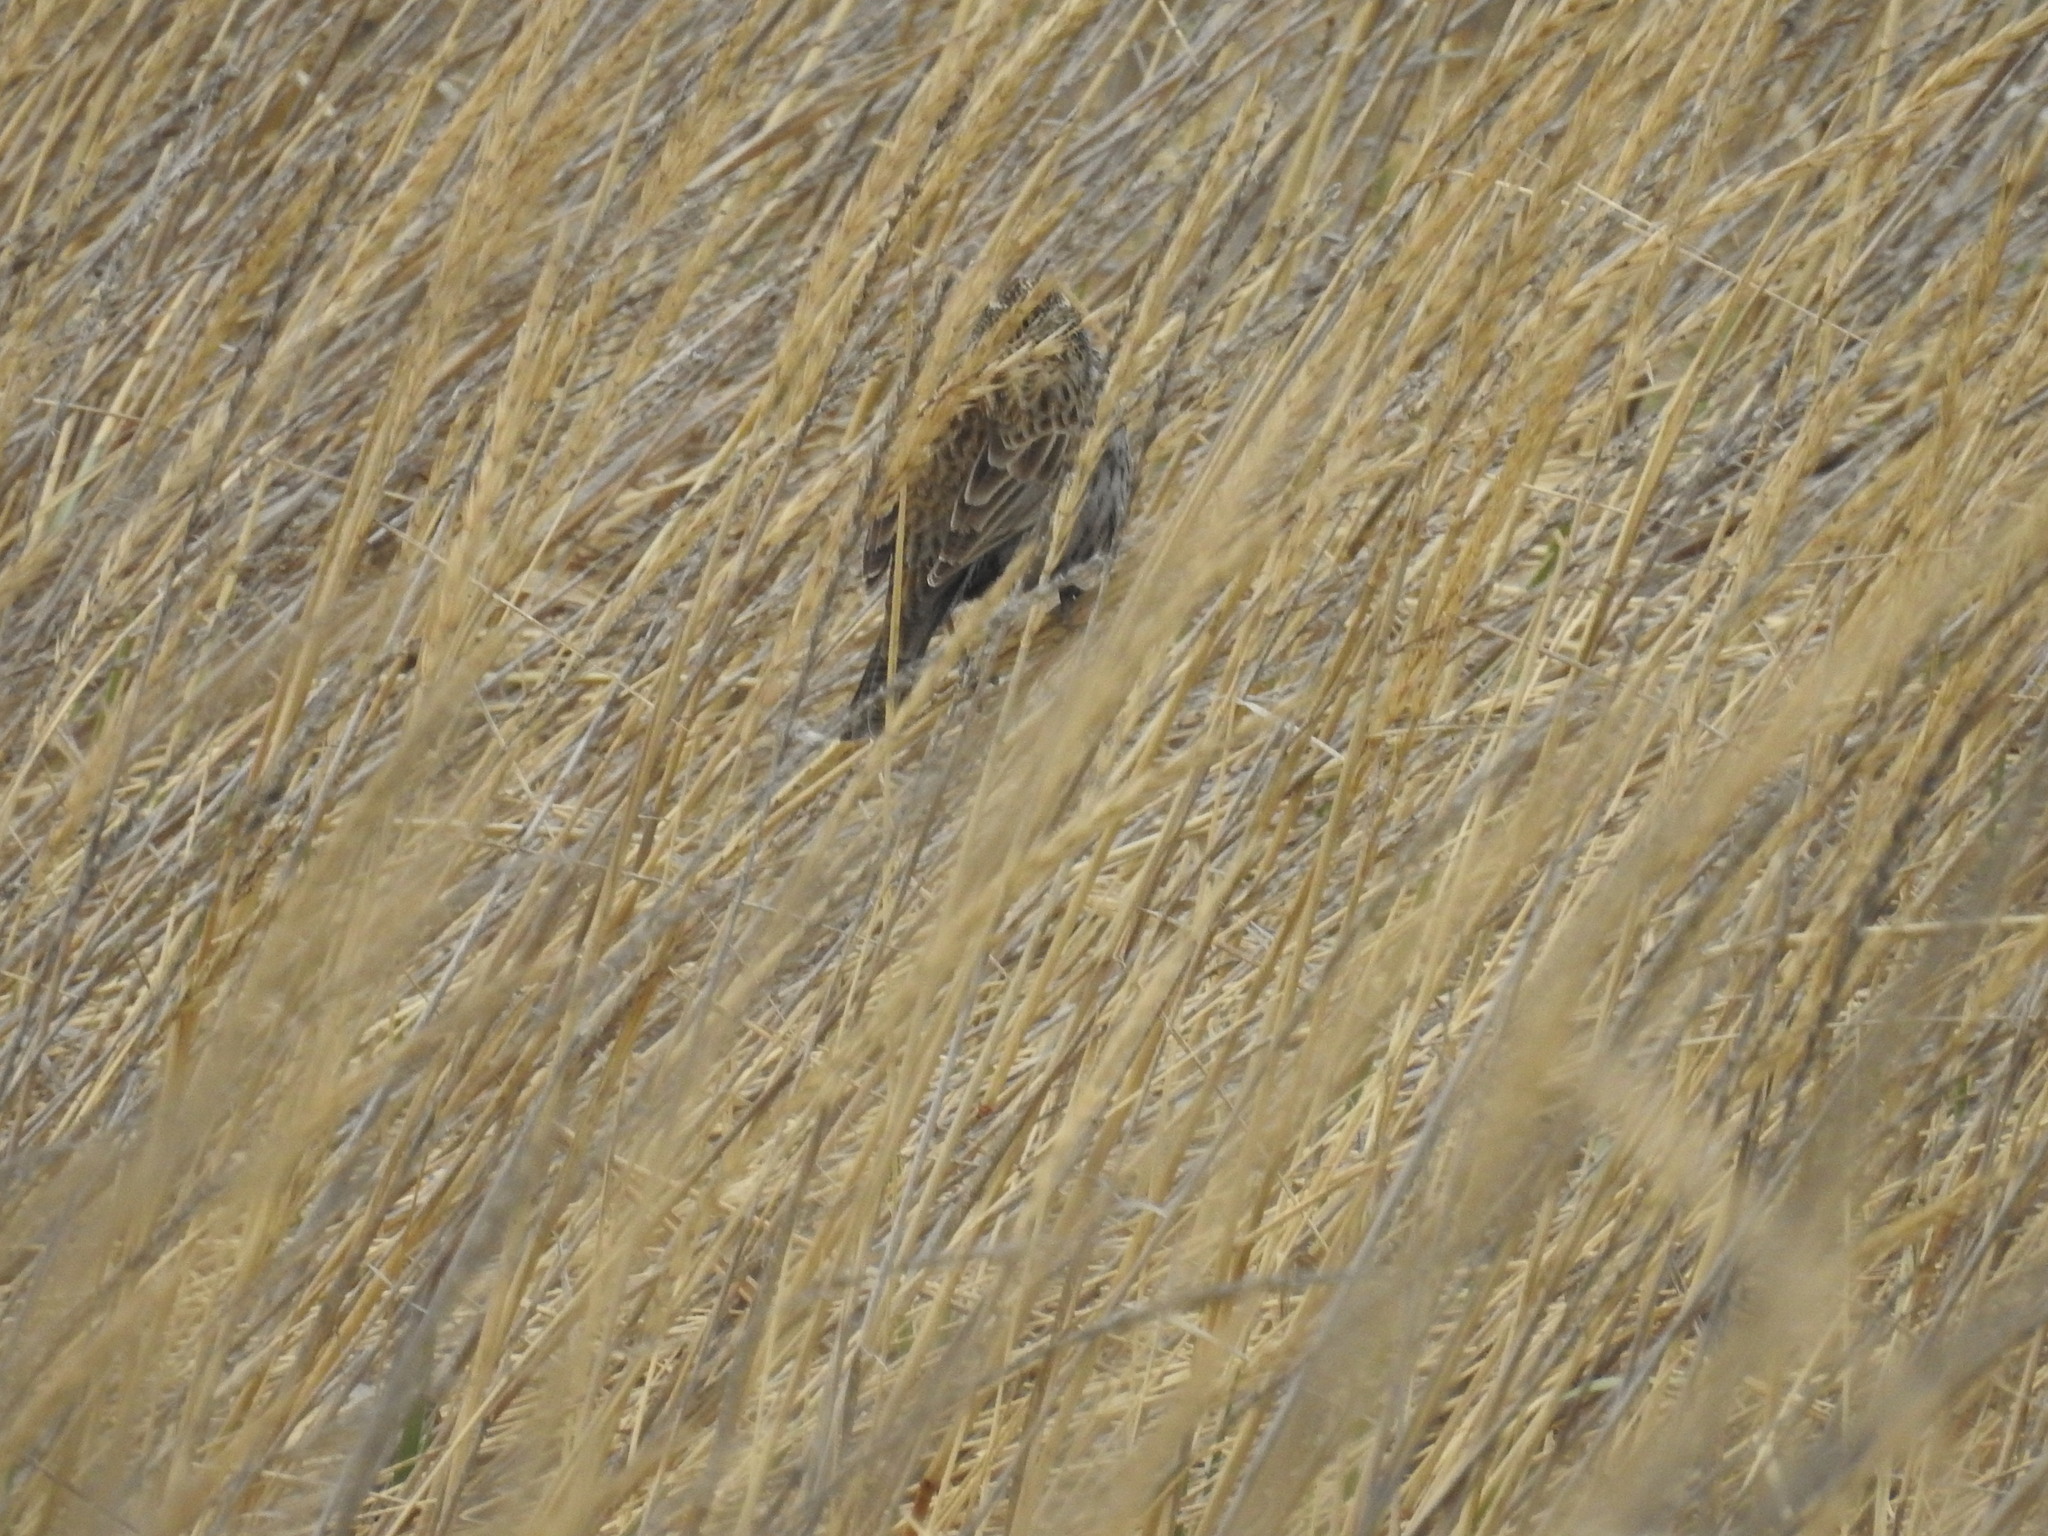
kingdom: Animalia
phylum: Chordata
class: Aves
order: Passeriformes
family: Icteridae
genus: Sturnella
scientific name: Sturnella loyca
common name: Long-tailed meadowlark
